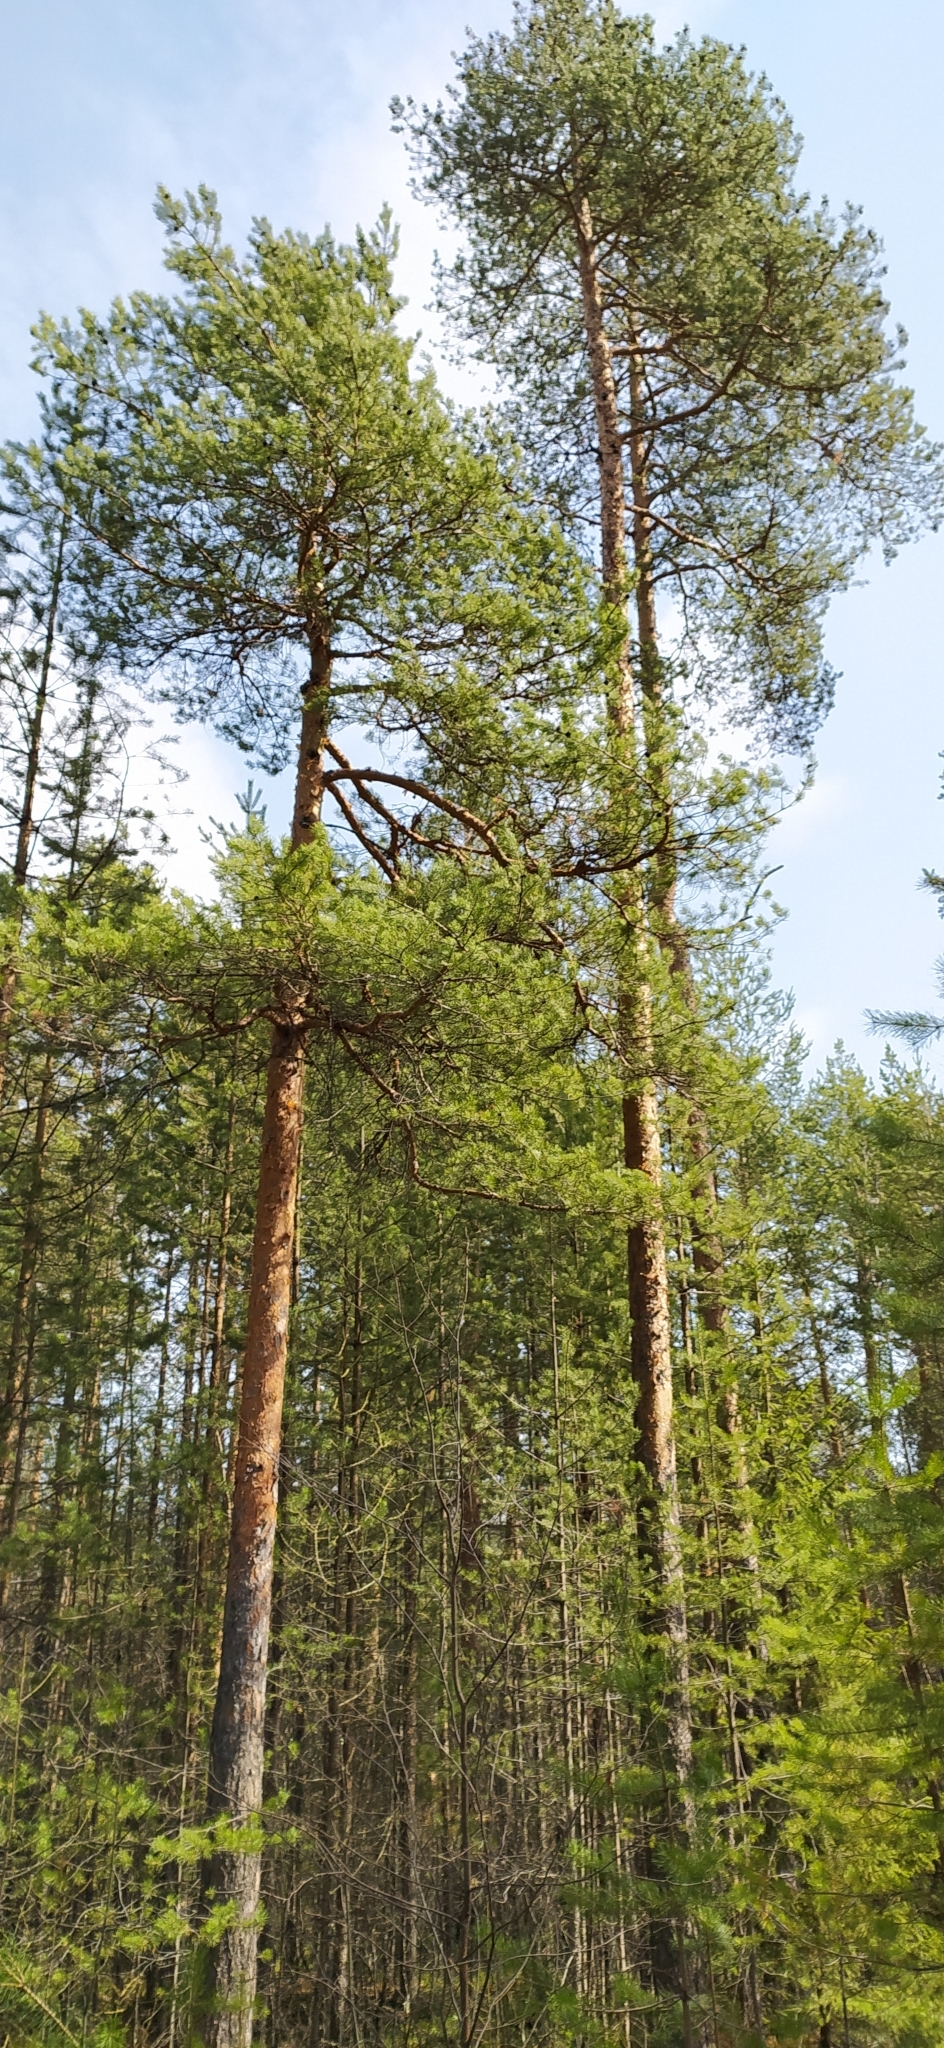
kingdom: Plantae
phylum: Tracheophyta
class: Pinopsida
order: Pinales
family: Pinaceae
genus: Pinus
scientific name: Pinus sylvestris
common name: Scots pine
